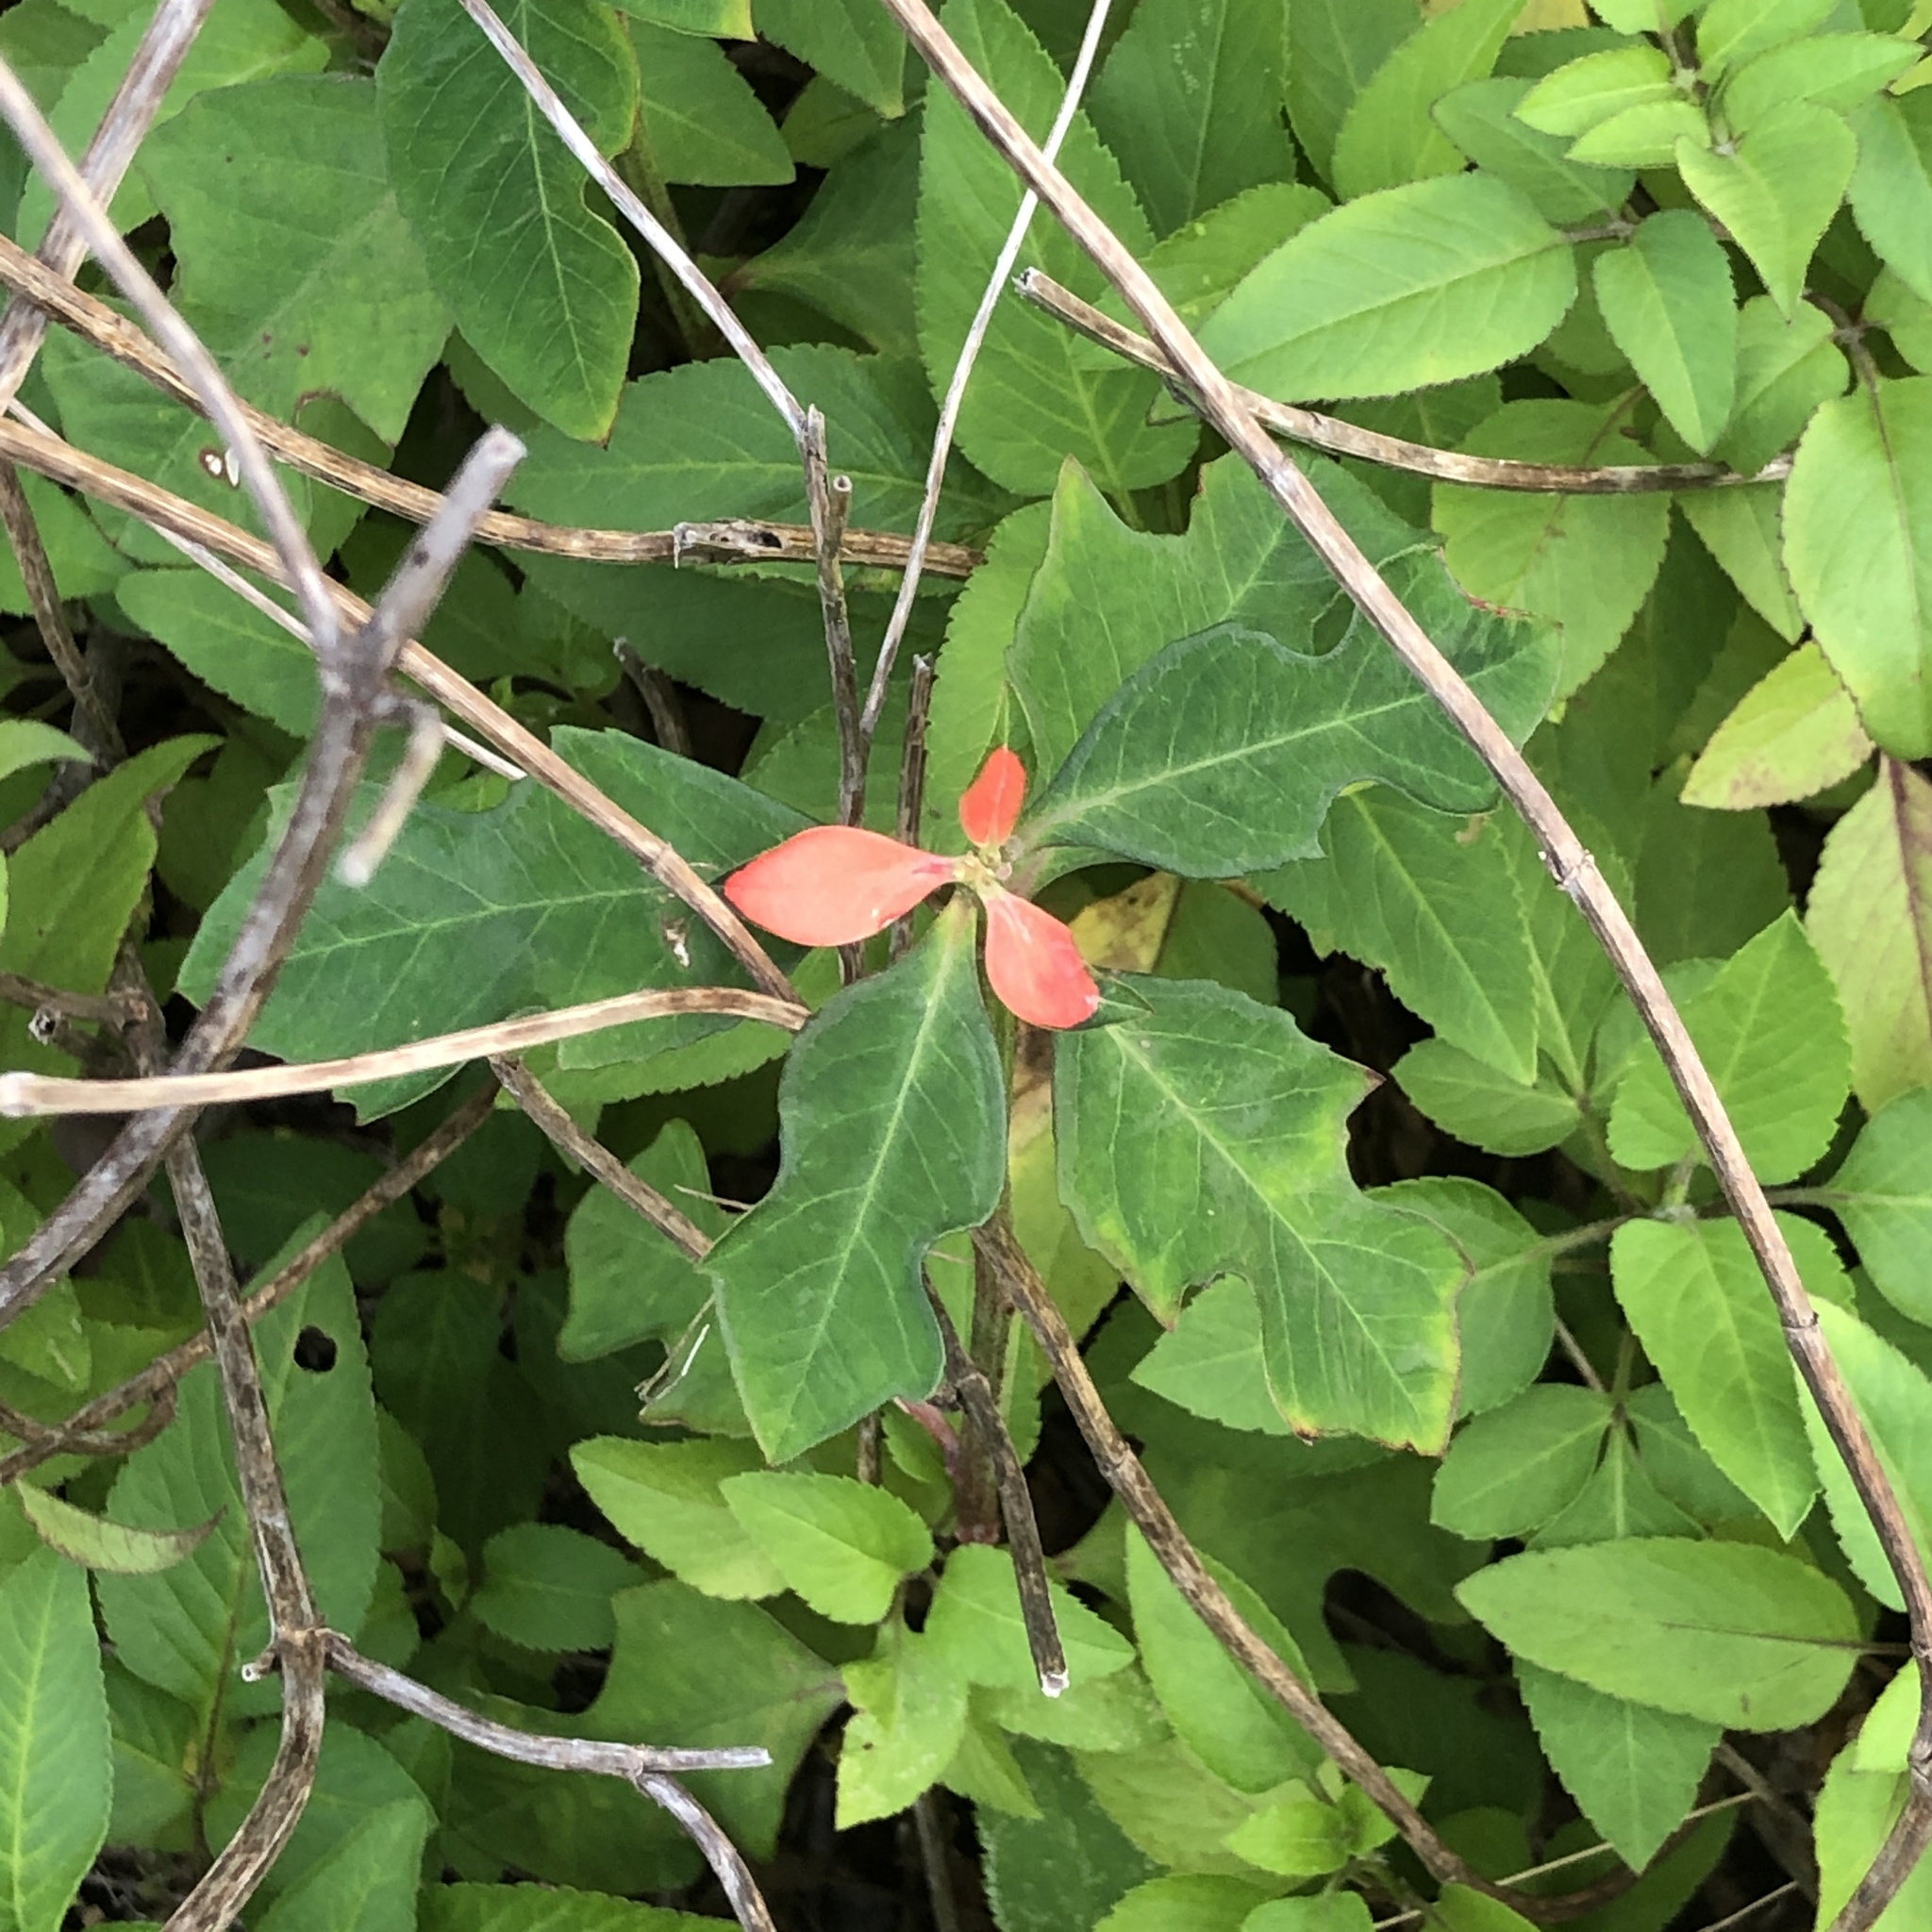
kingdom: Plantae
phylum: Tracheophyta
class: Magnoliopsida
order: Malpighiales
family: Euphorbiaceae
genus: Euphorbia
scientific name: Euphorbia heterophylla
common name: Mexican fireplant
